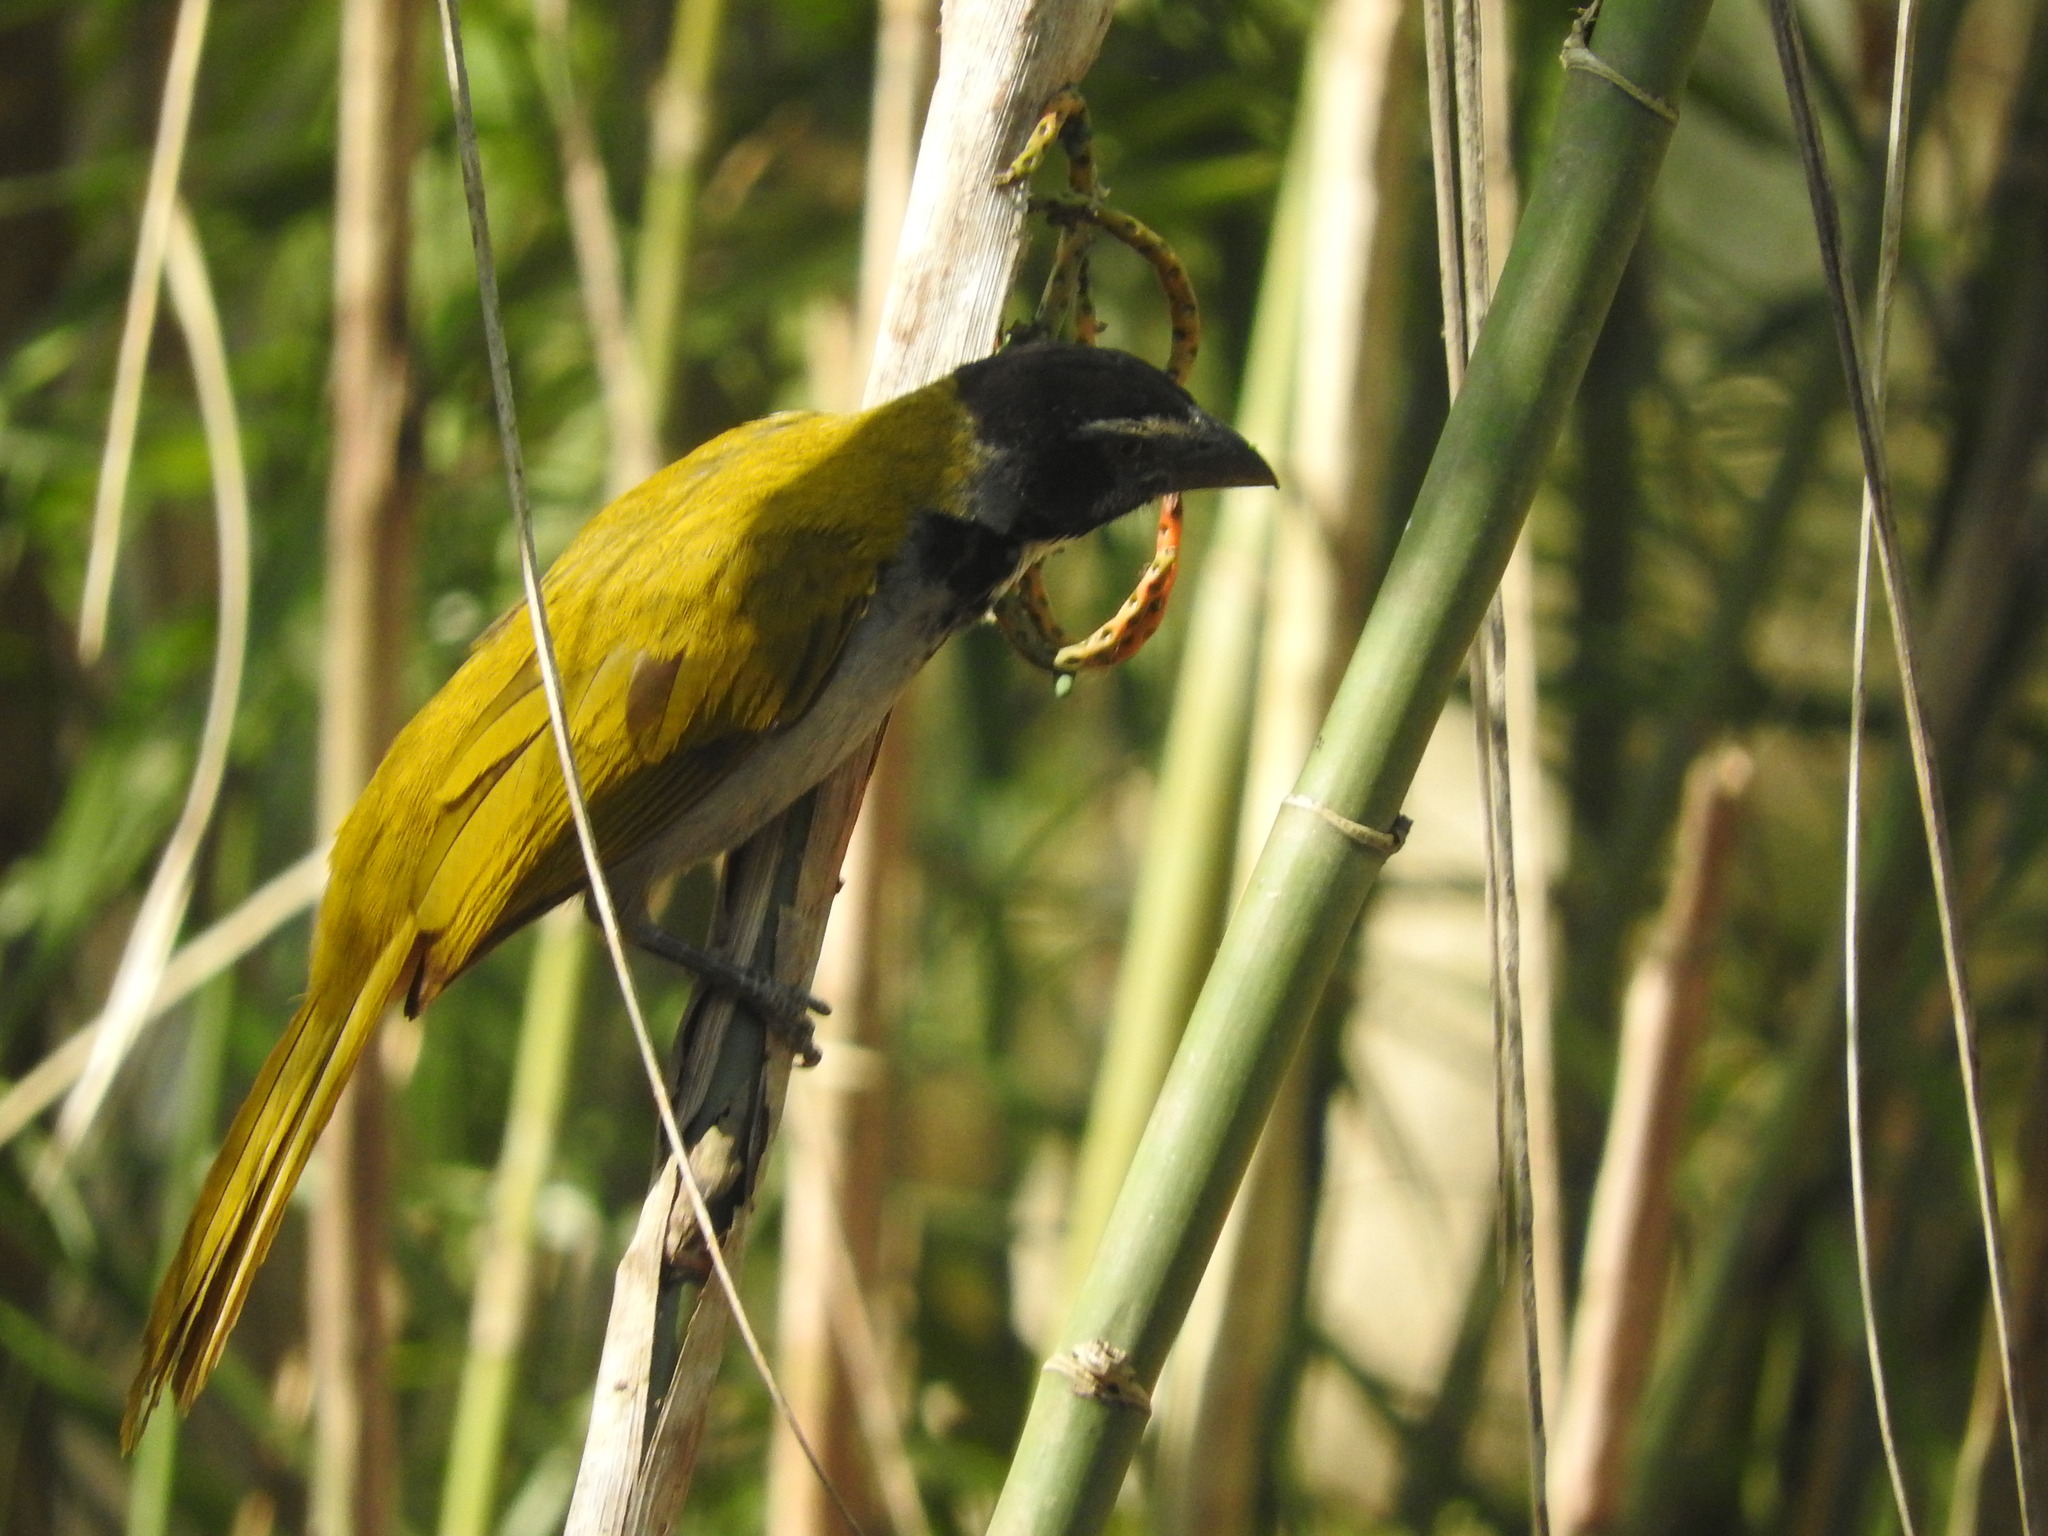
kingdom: Animalia
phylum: Chordata
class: Aves
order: Passeriformes
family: Thraupidae
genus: Saltator
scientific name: Saltator atriceps
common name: Black-headed saltator
